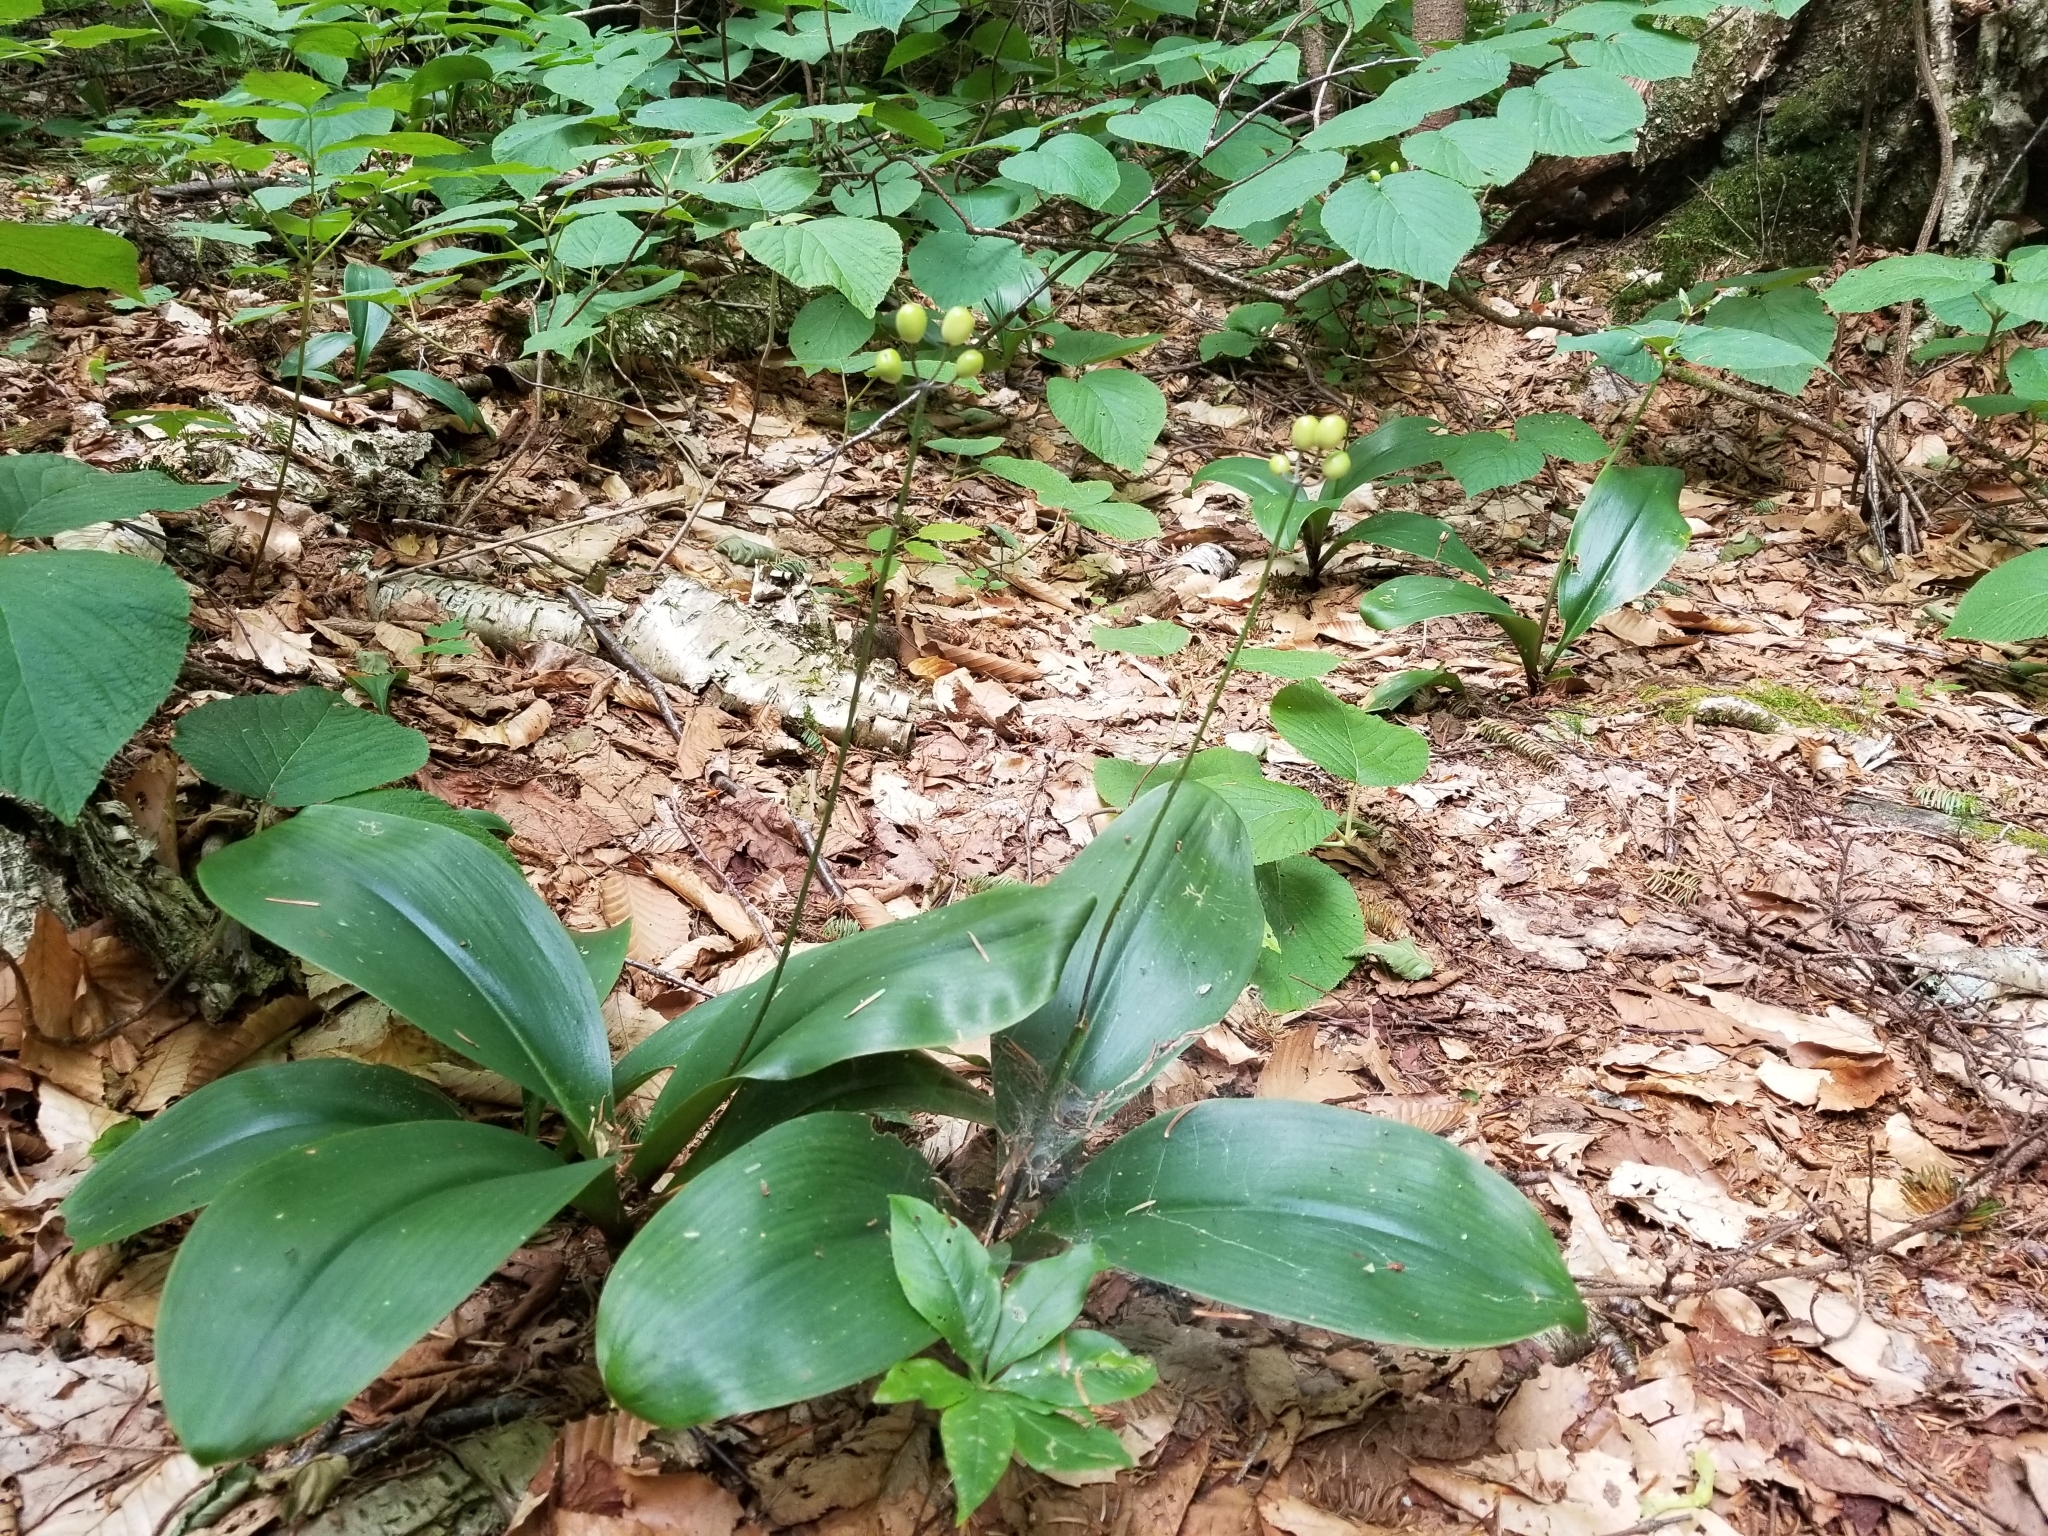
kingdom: Plantae
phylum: Tracheophyta
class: Liliopsida
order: Liliales
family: Liliaceae
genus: Clintonia
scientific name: Clintonia borealis
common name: Yellow clintonia
